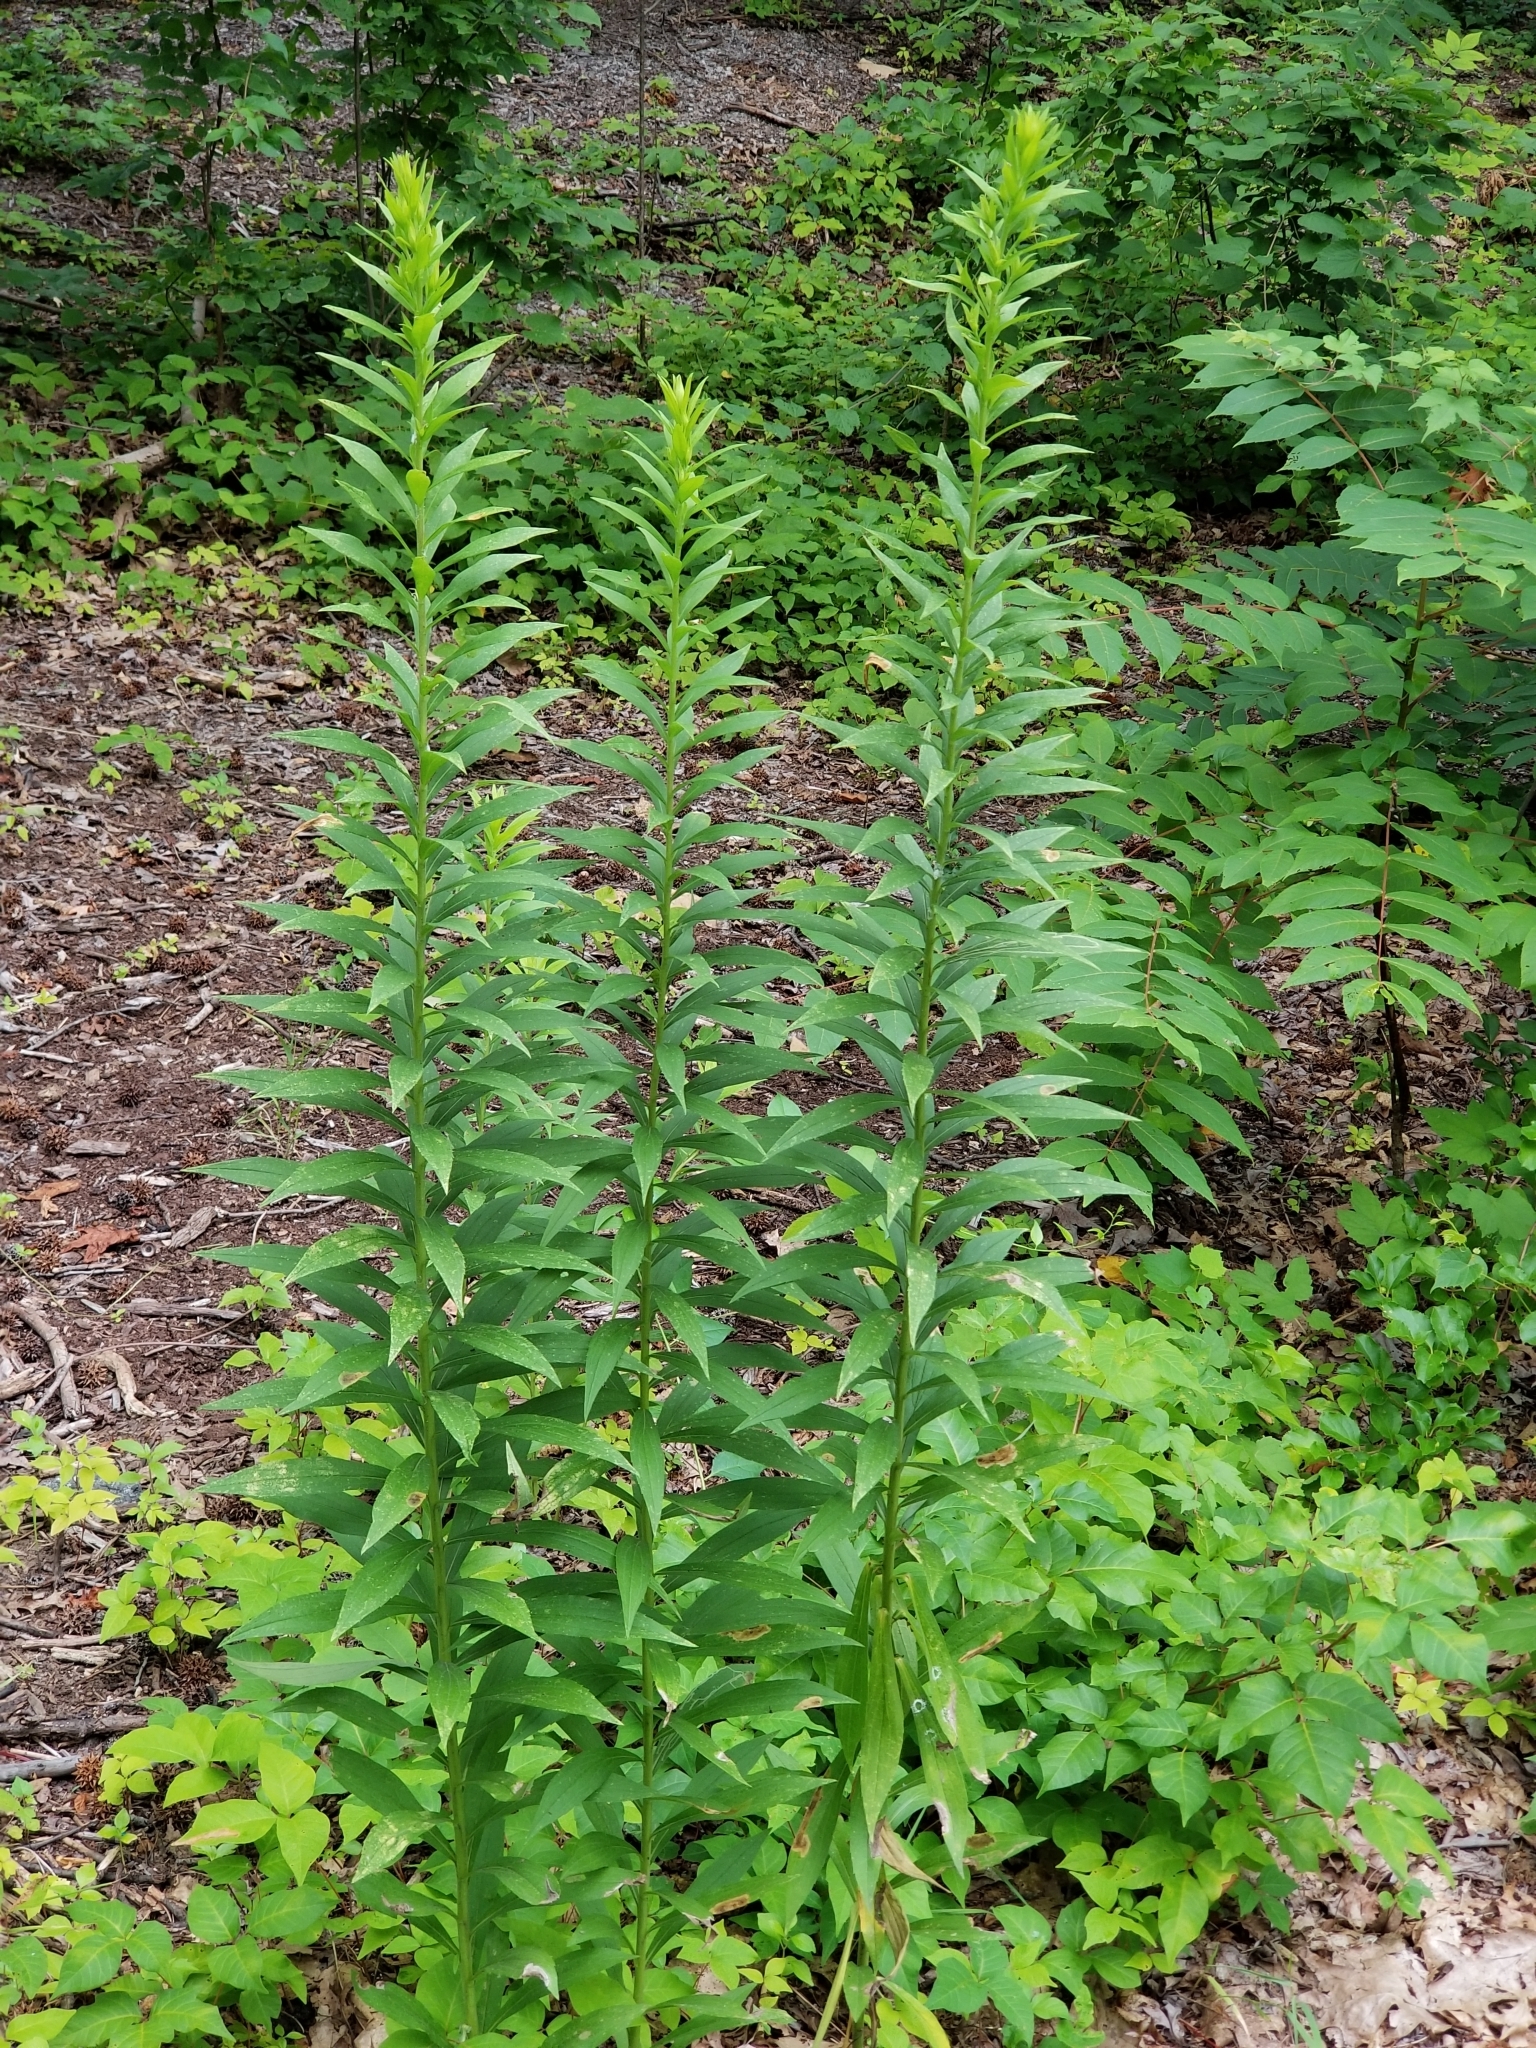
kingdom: Plantae
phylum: Tracheophyta
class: Magnoliopsida
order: Asterales
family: Asteraceae
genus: Erigeron
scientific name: Erigeron canadensis
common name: Canadian fleabane
